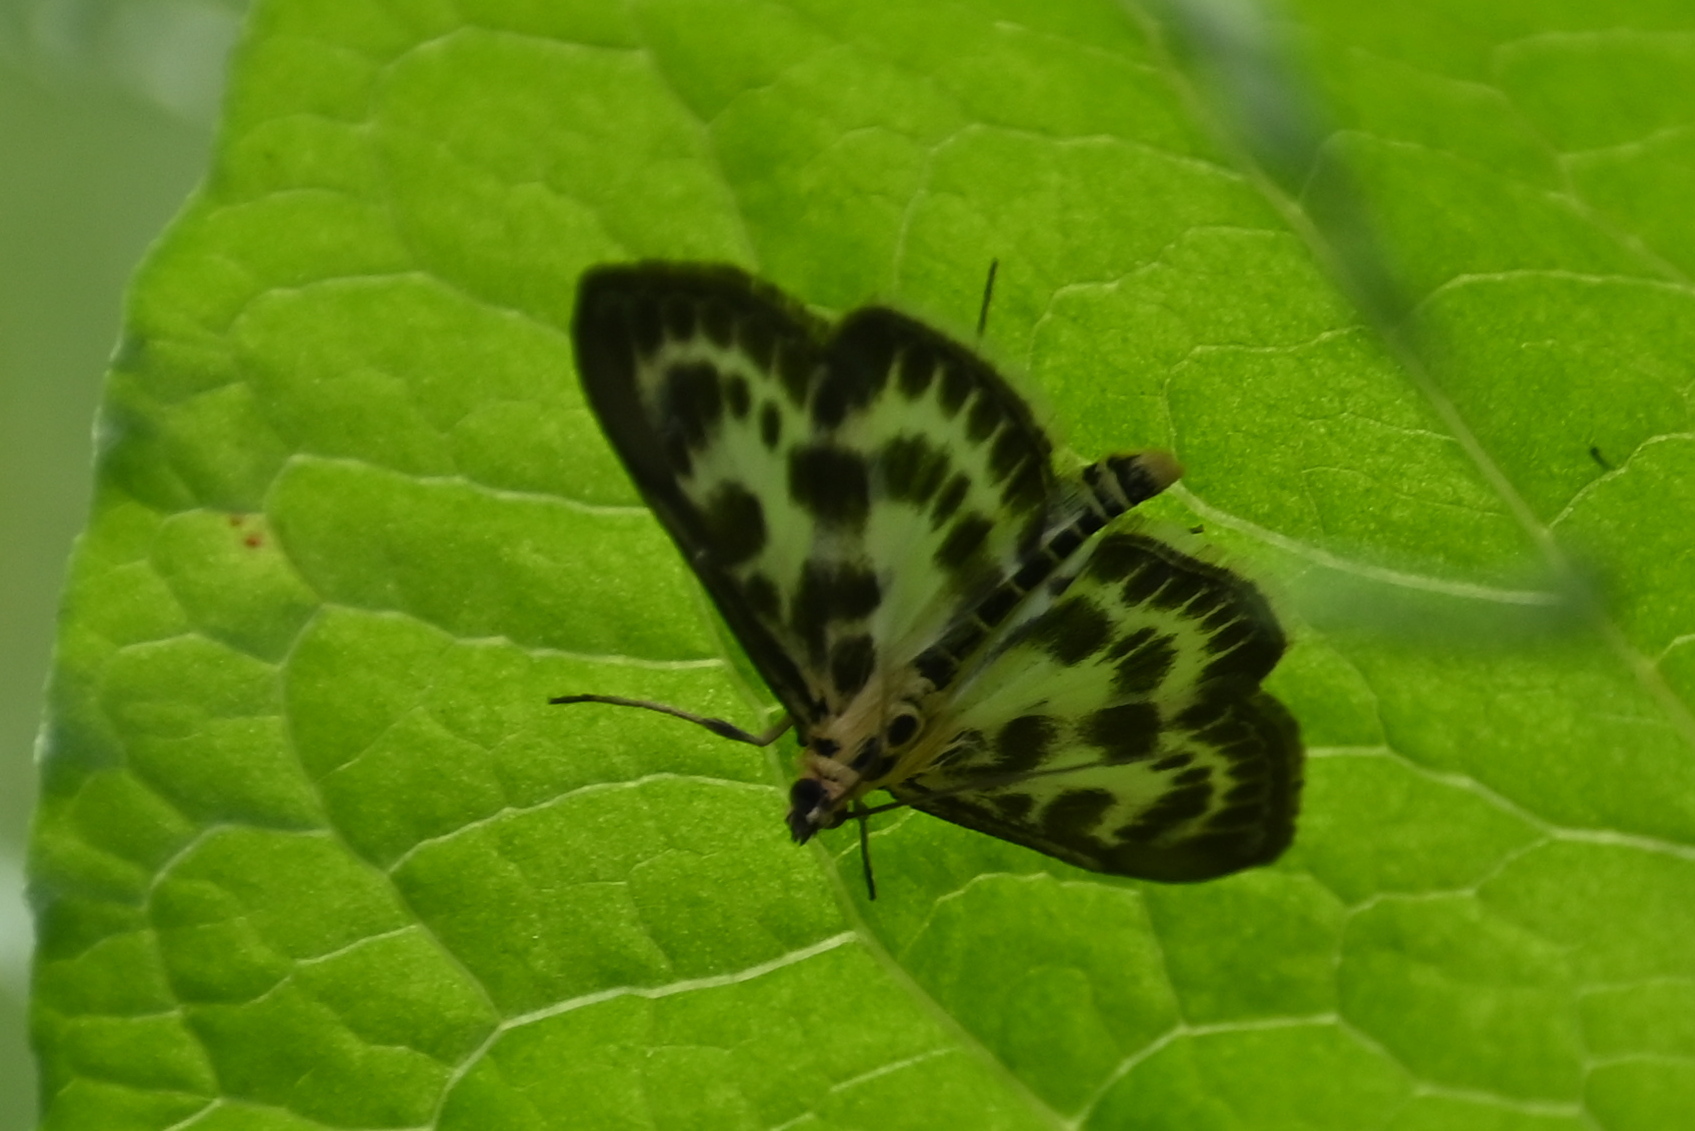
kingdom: Animalia
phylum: Arthropoda
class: Insecta
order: Lepidoptera
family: Crambidae
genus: Anania
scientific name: Anania hortulata
